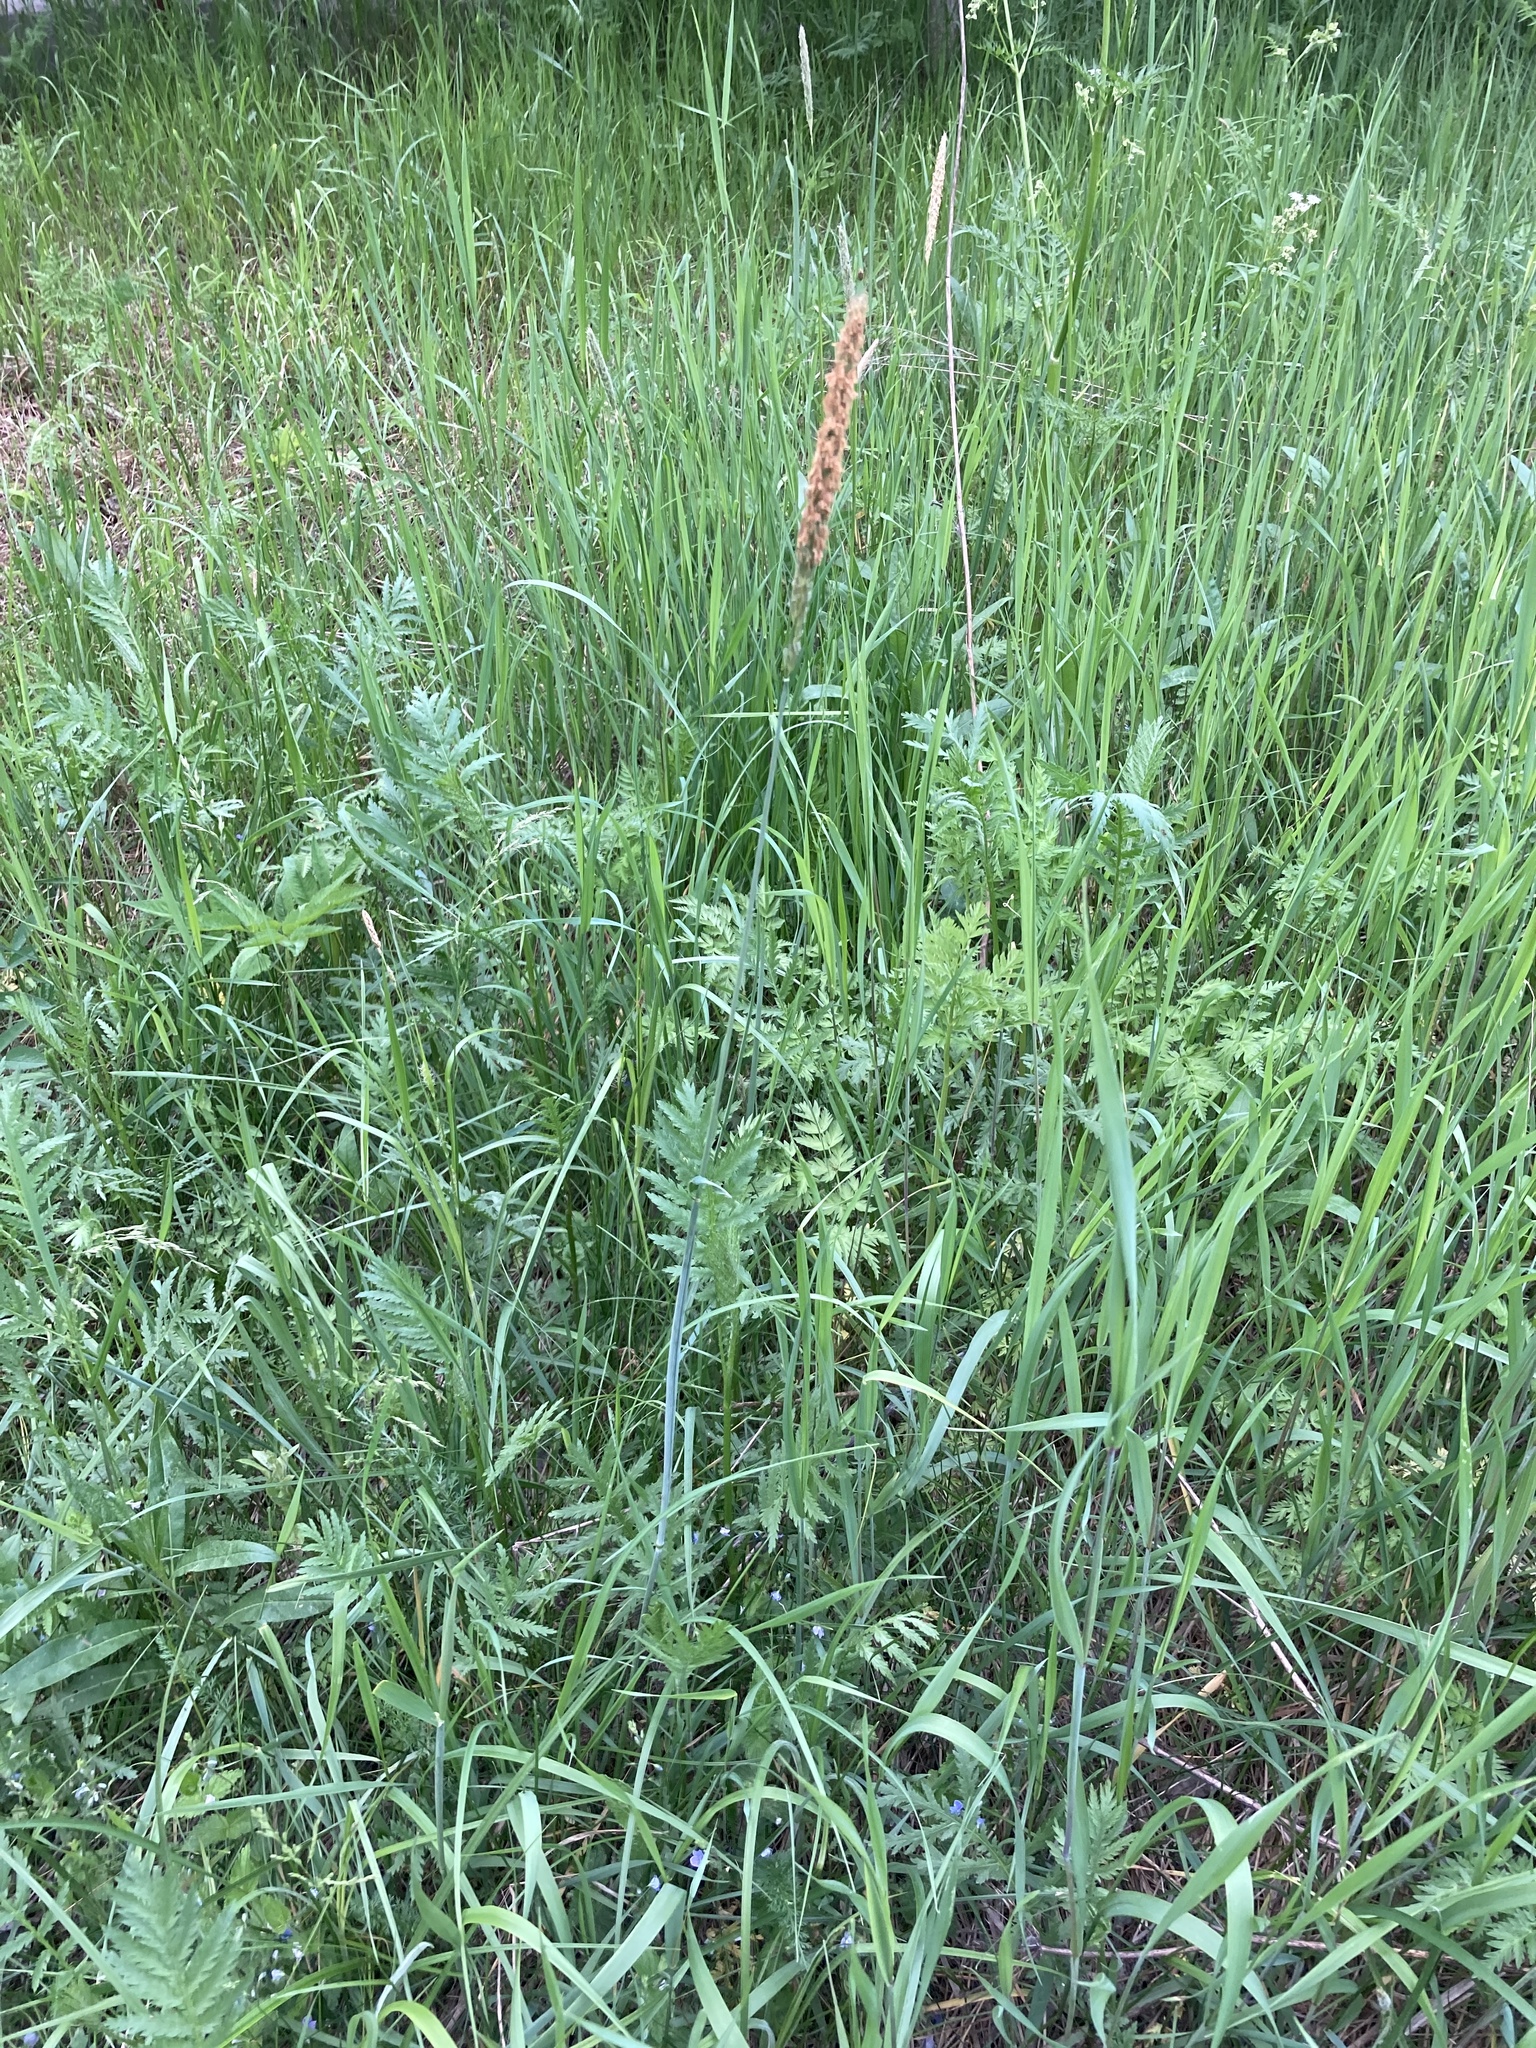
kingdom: Plantae
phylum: Tracheophyta
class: Liliopsida
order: Poales
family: Poaceae
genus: Alopecurus
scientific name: Alopecurus pratensis
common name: Meadow foxtail
